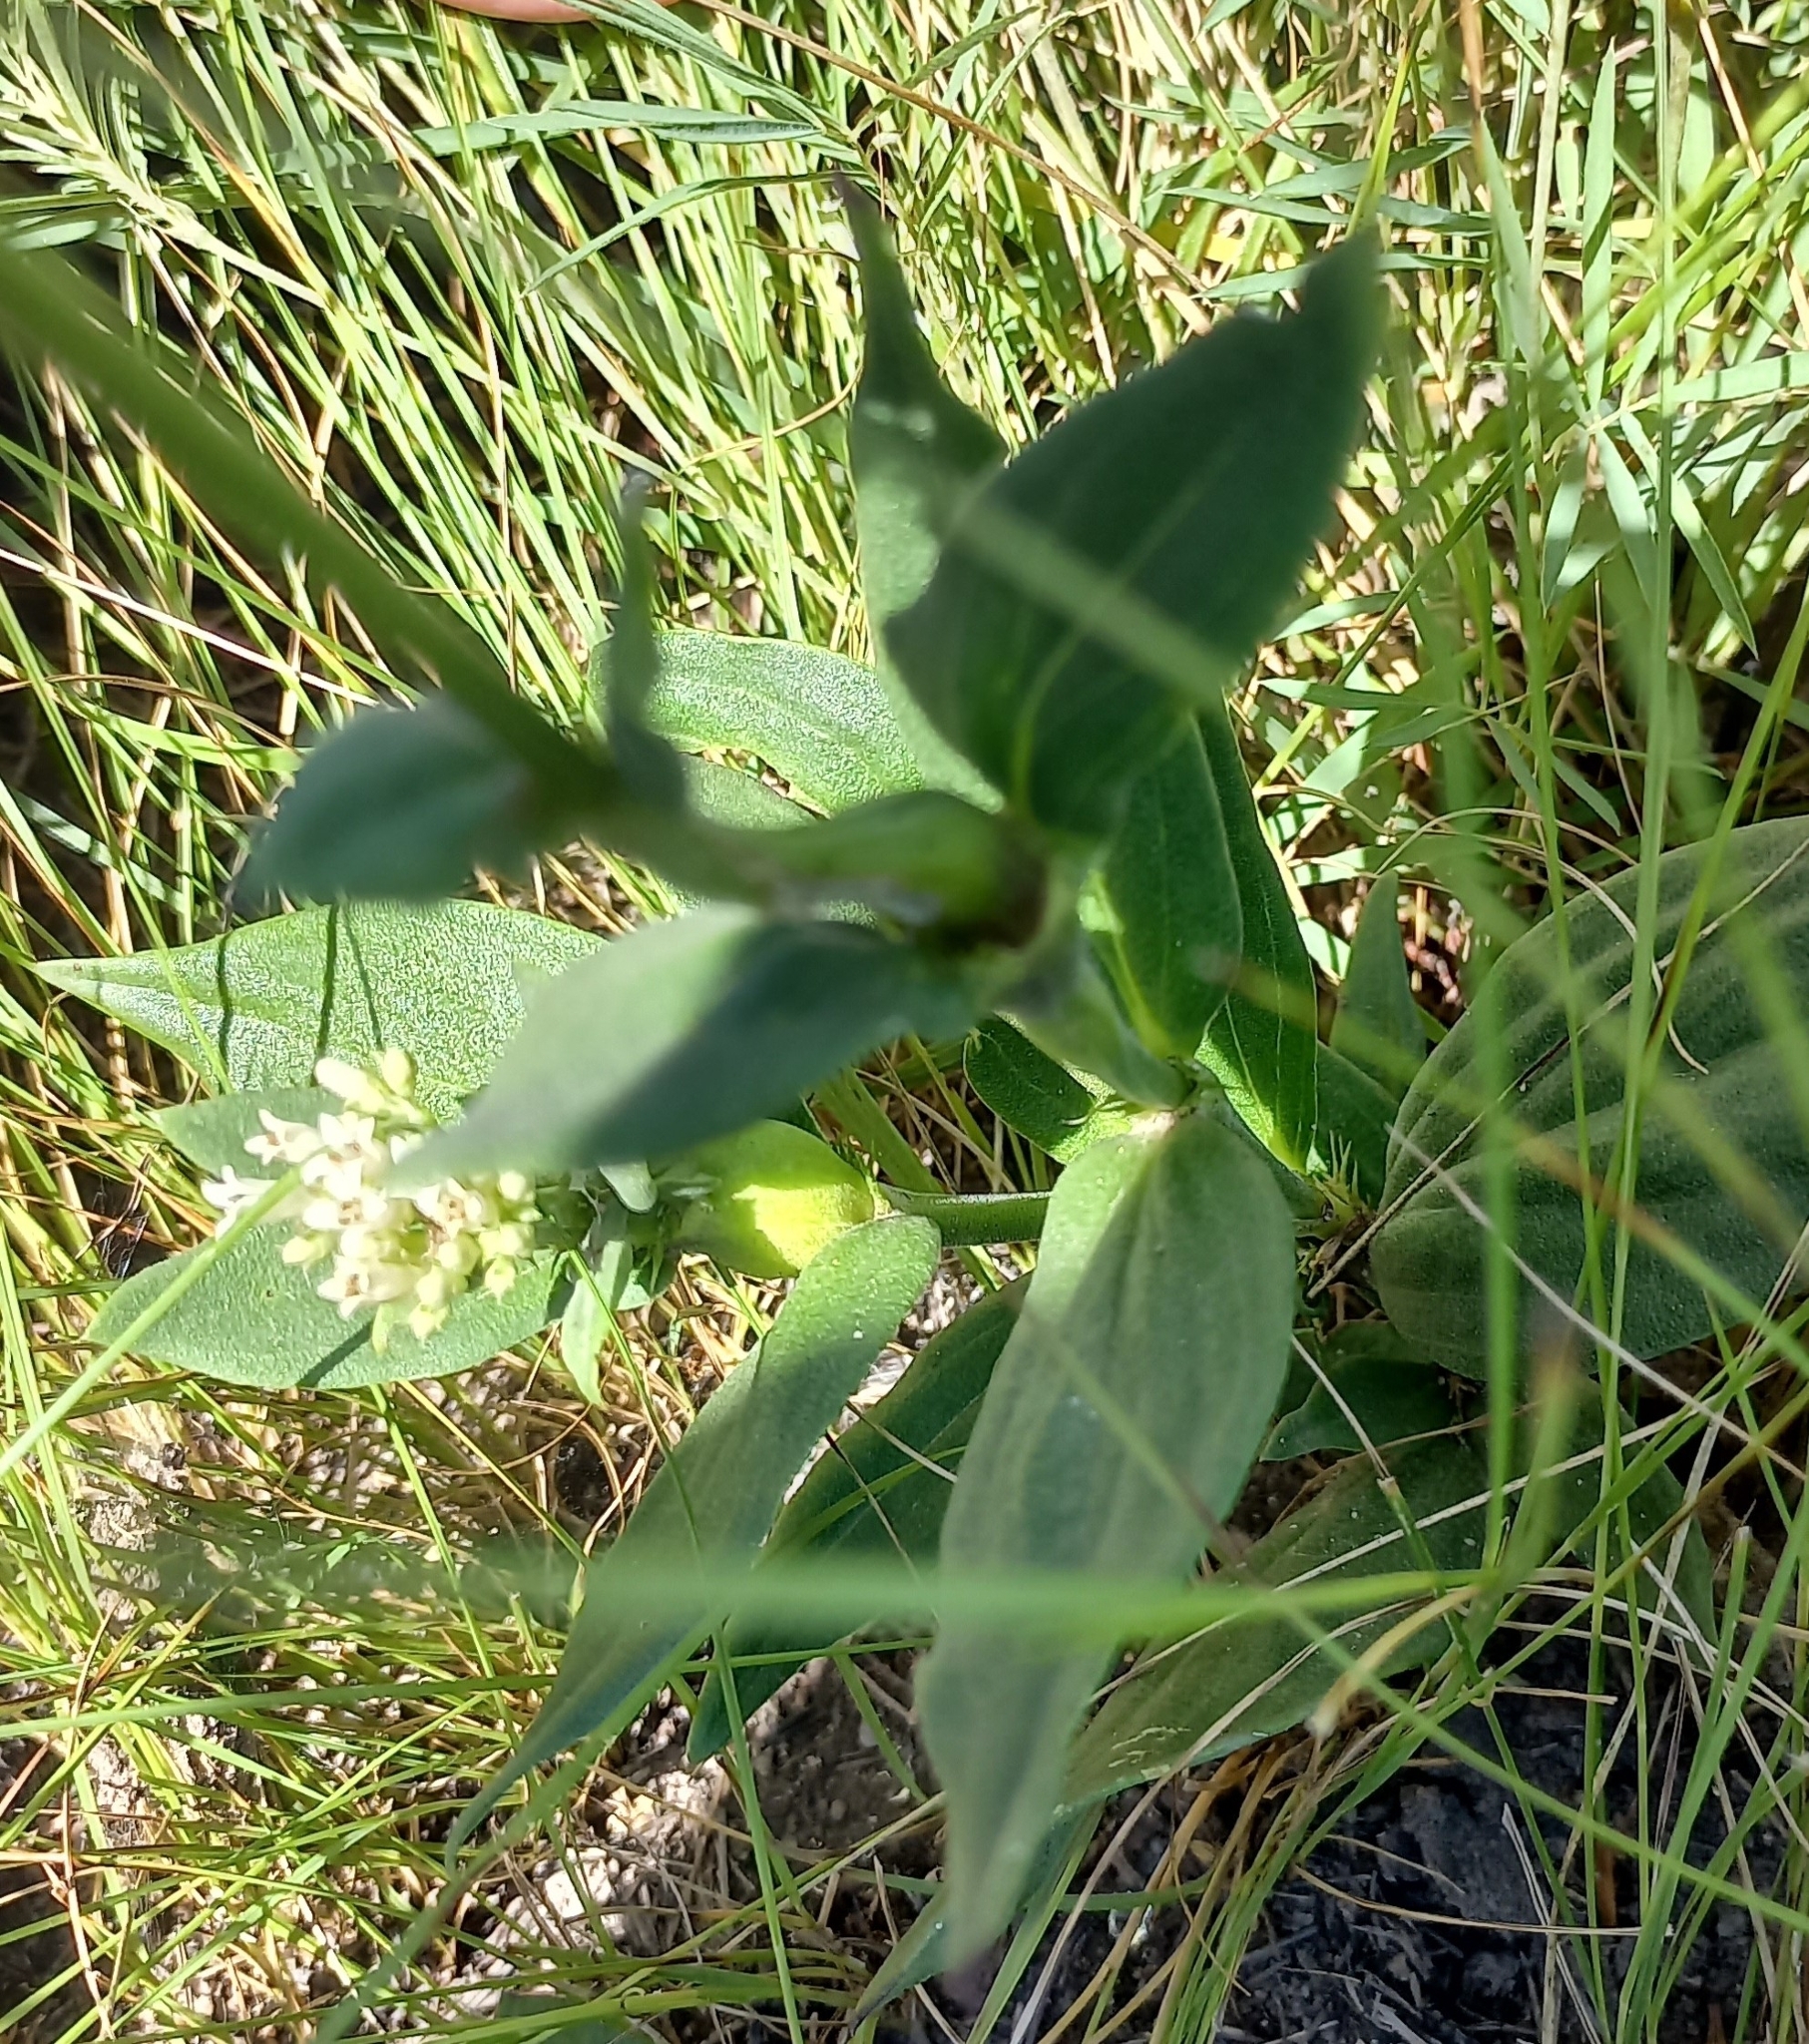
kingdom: Plantae
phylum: Tracheophyta
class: Magnoliopsida
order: Gentianales
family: Rubiaceae
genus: Agathisanthemum
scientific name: Agathisanthemum chlorophyllum
